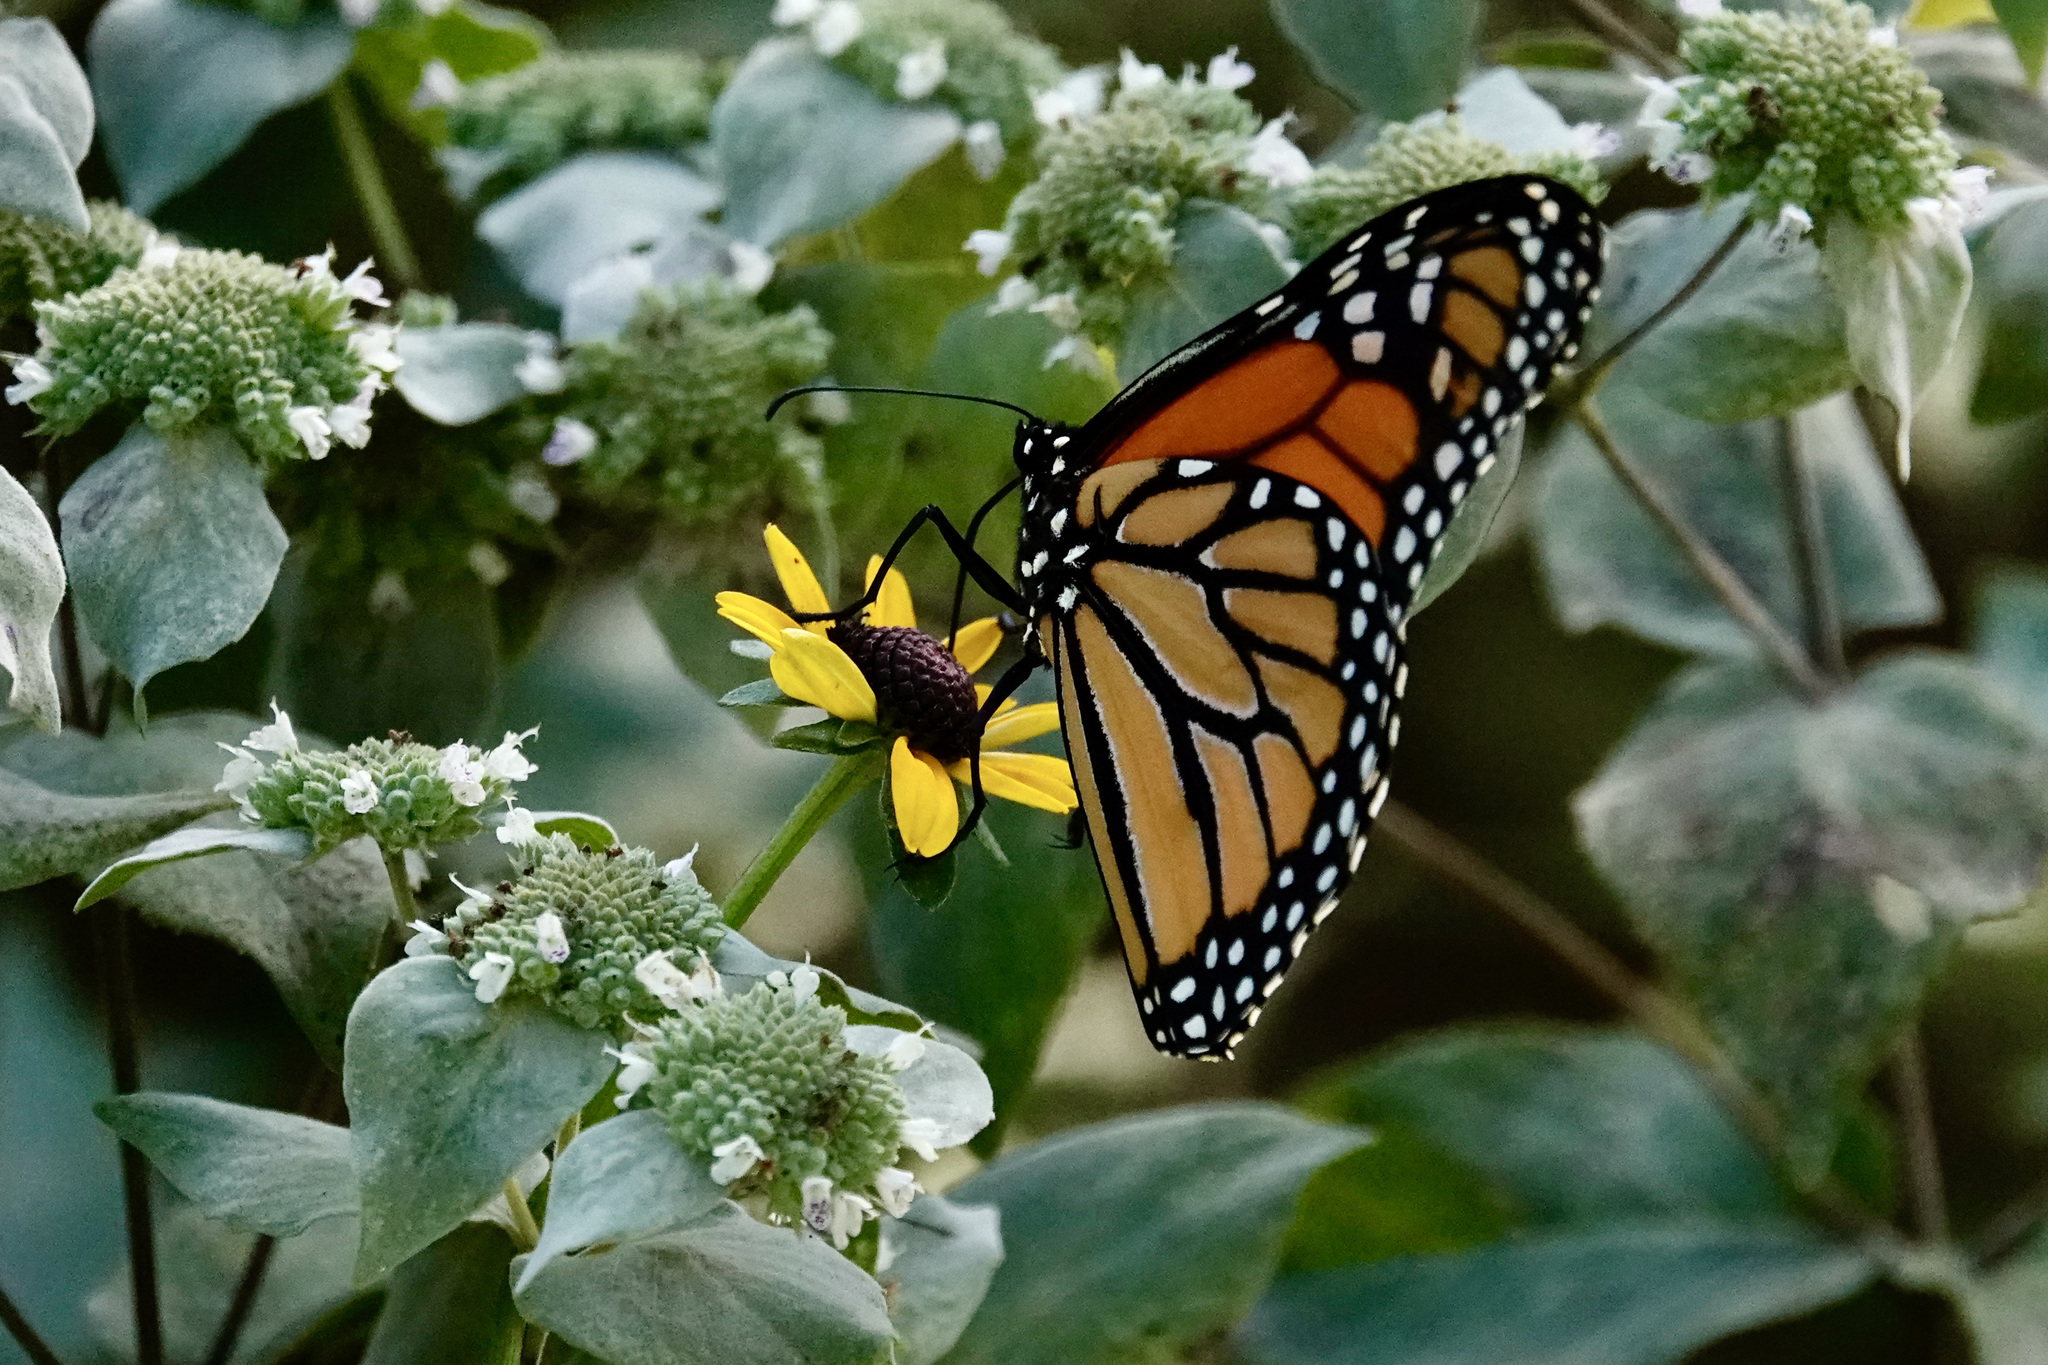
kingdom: Animalia
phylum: Arthropoda
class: Insecta
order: Lepidoptera
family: Nymphalidae
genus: Danaus
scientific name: Danaus plexippus
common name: Monarch
